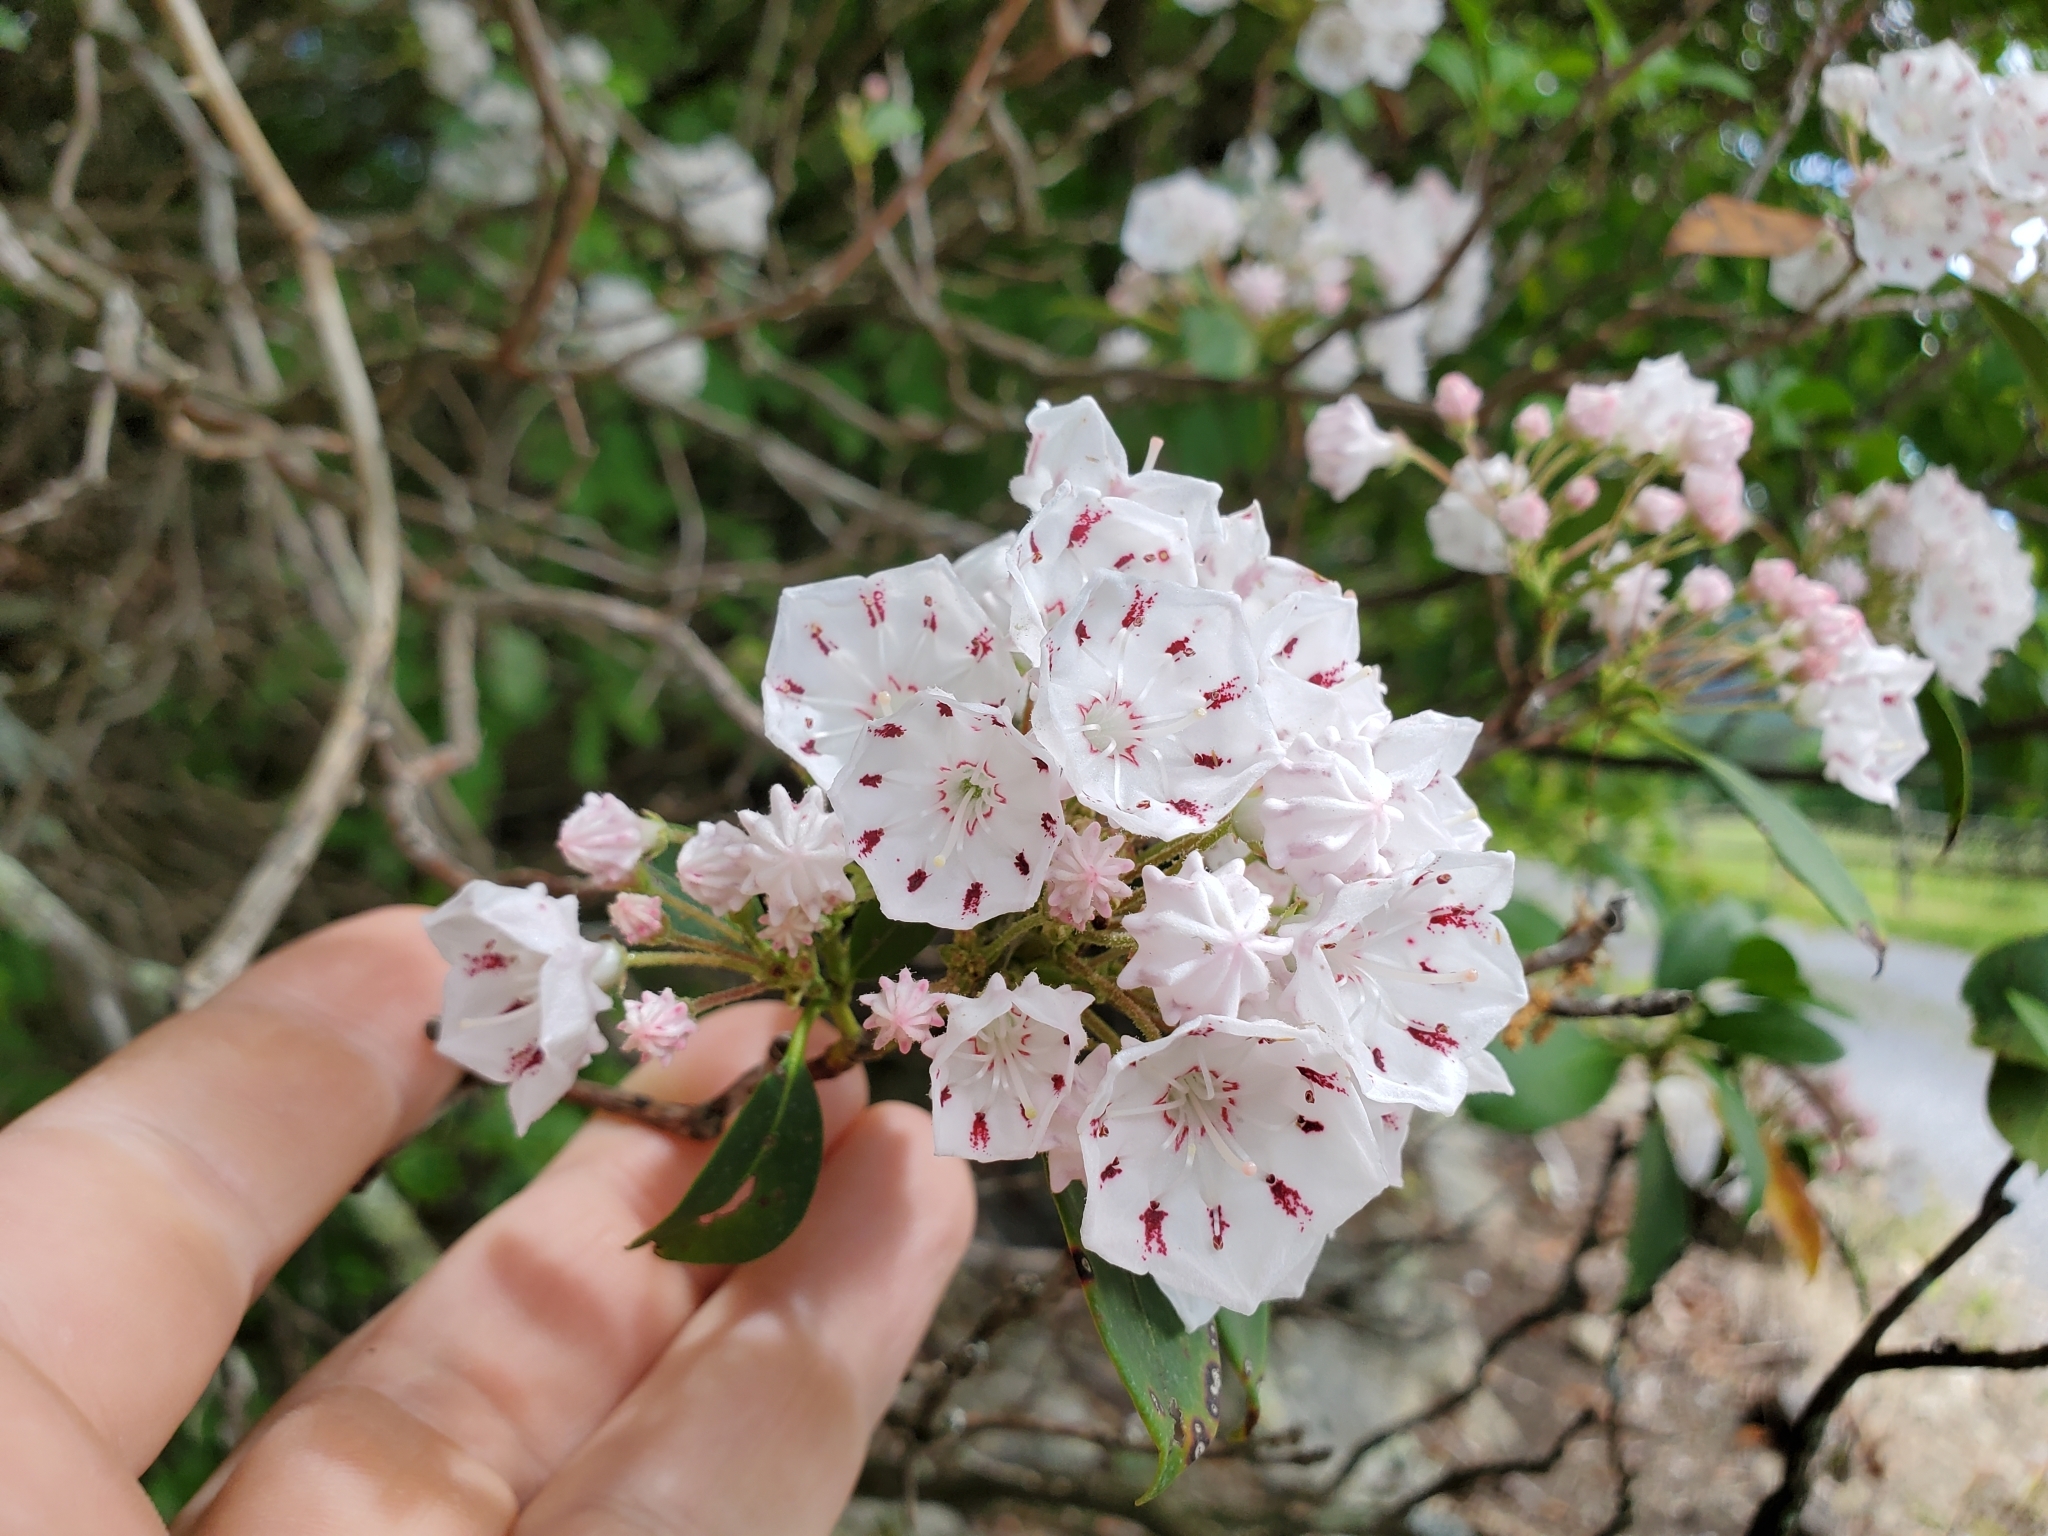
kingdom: Plantae
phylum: Tracheophyta
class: Magnoliopsida
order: Ericales
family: Ericaceae
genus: Kalmia
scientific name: Kalmia latifolia
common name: Mountain-laurel
